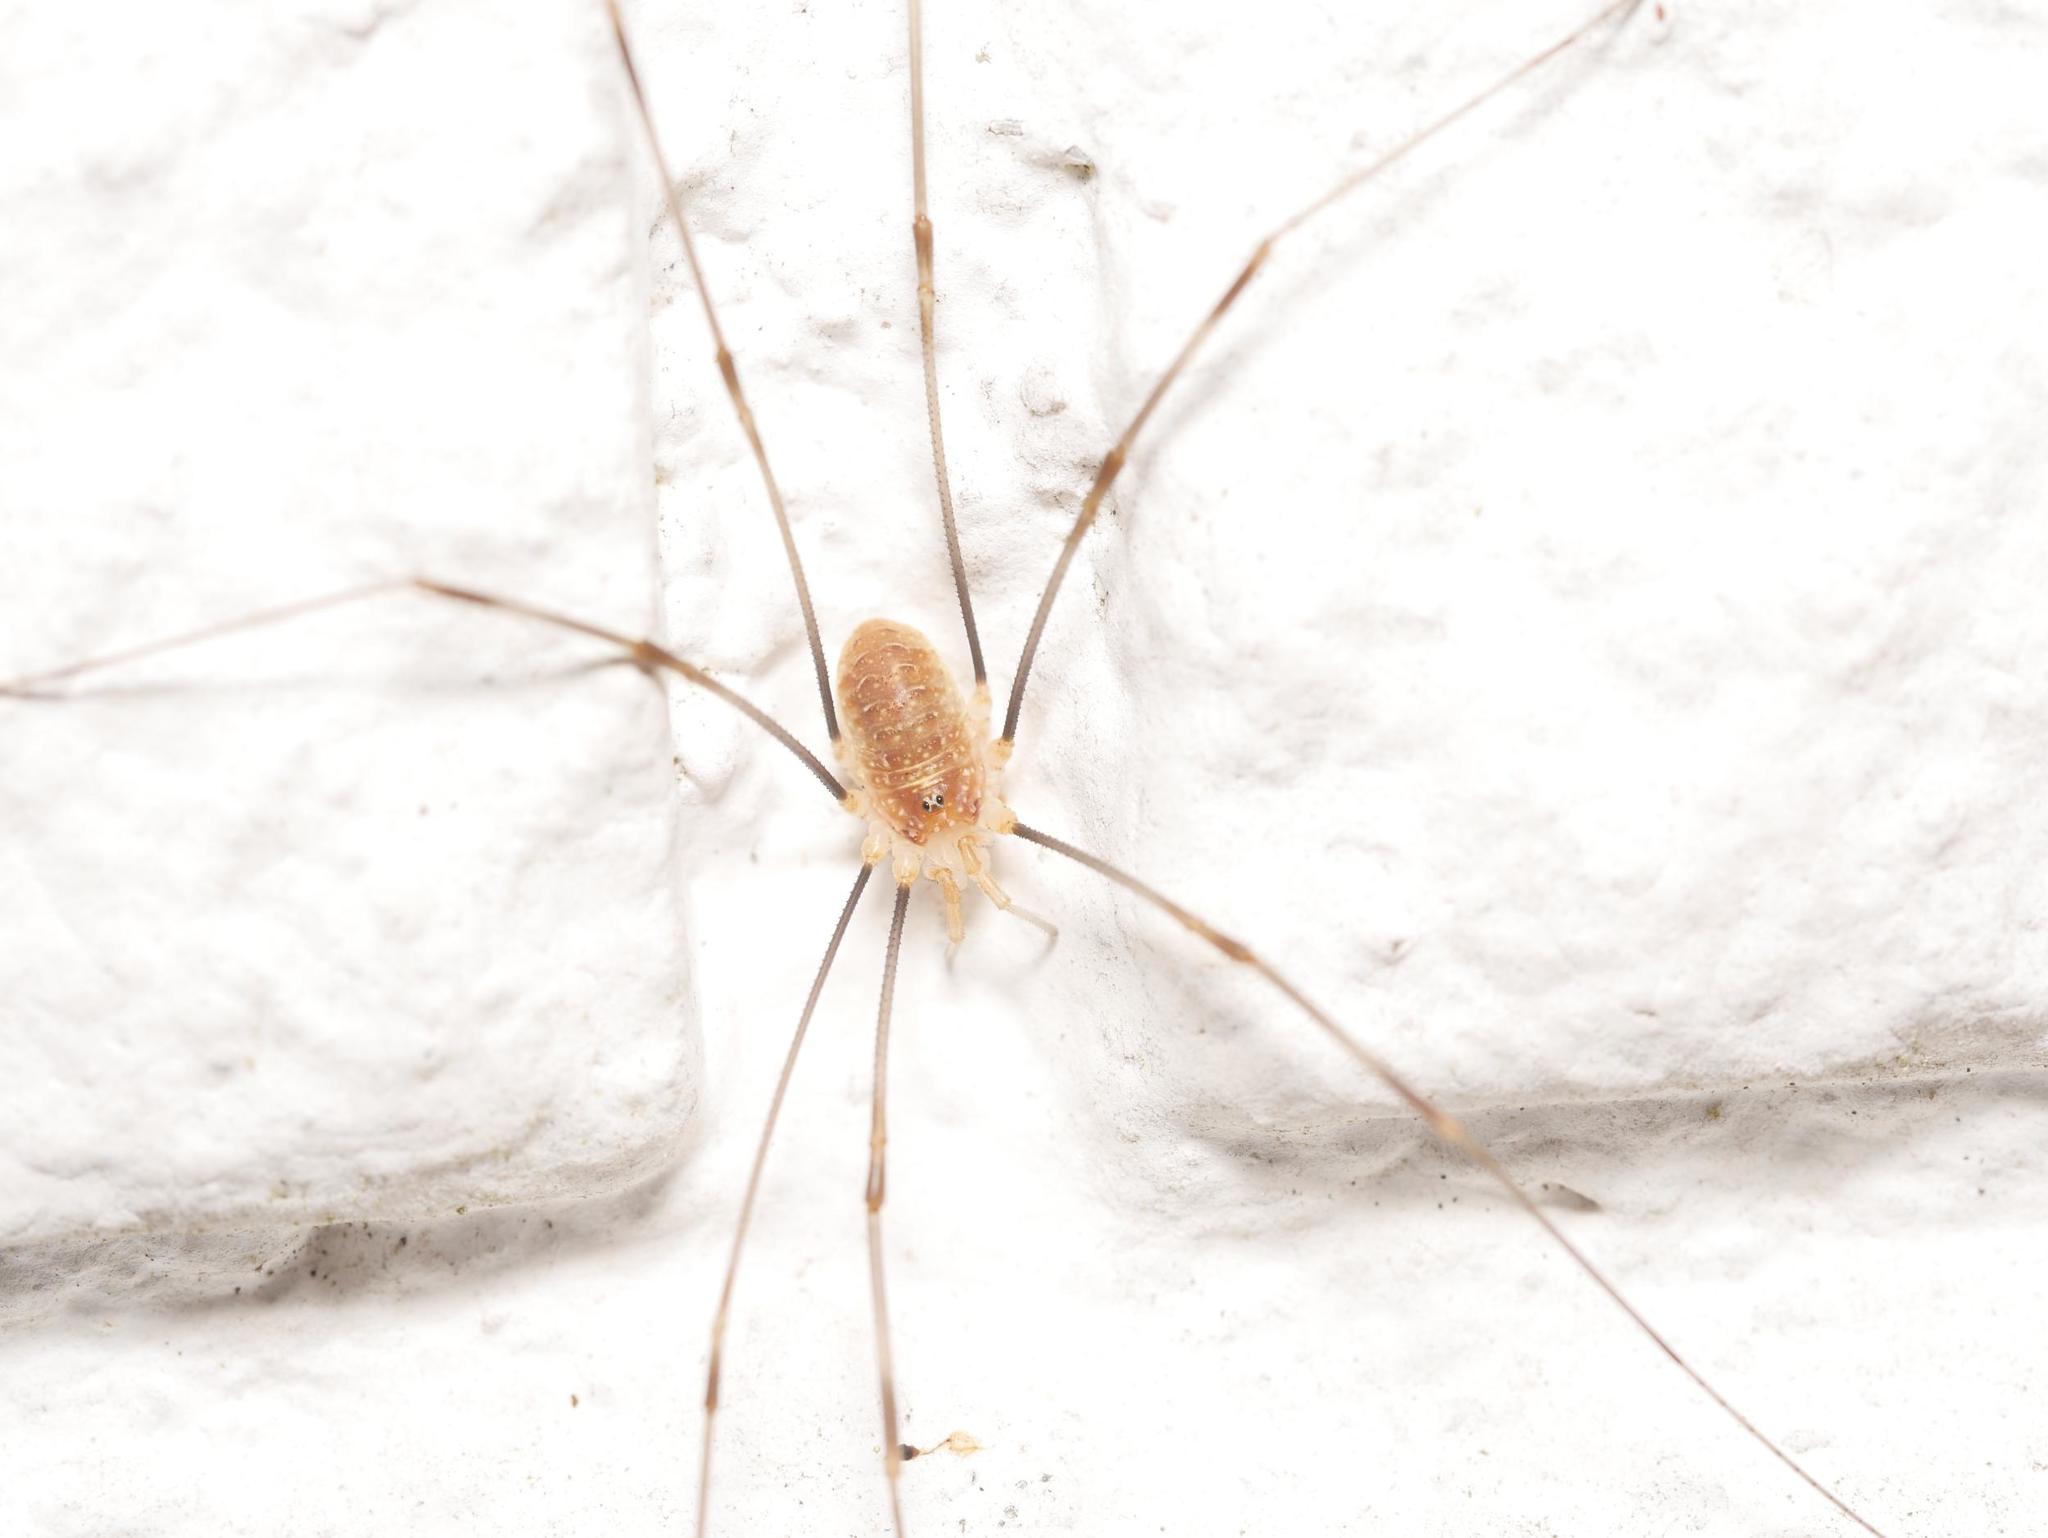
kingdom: Animalia
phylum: Arthropoda
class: Arachnida
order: Opiliones
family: Phalangiidae
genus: Opilio
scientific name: Opilio canestrinii
